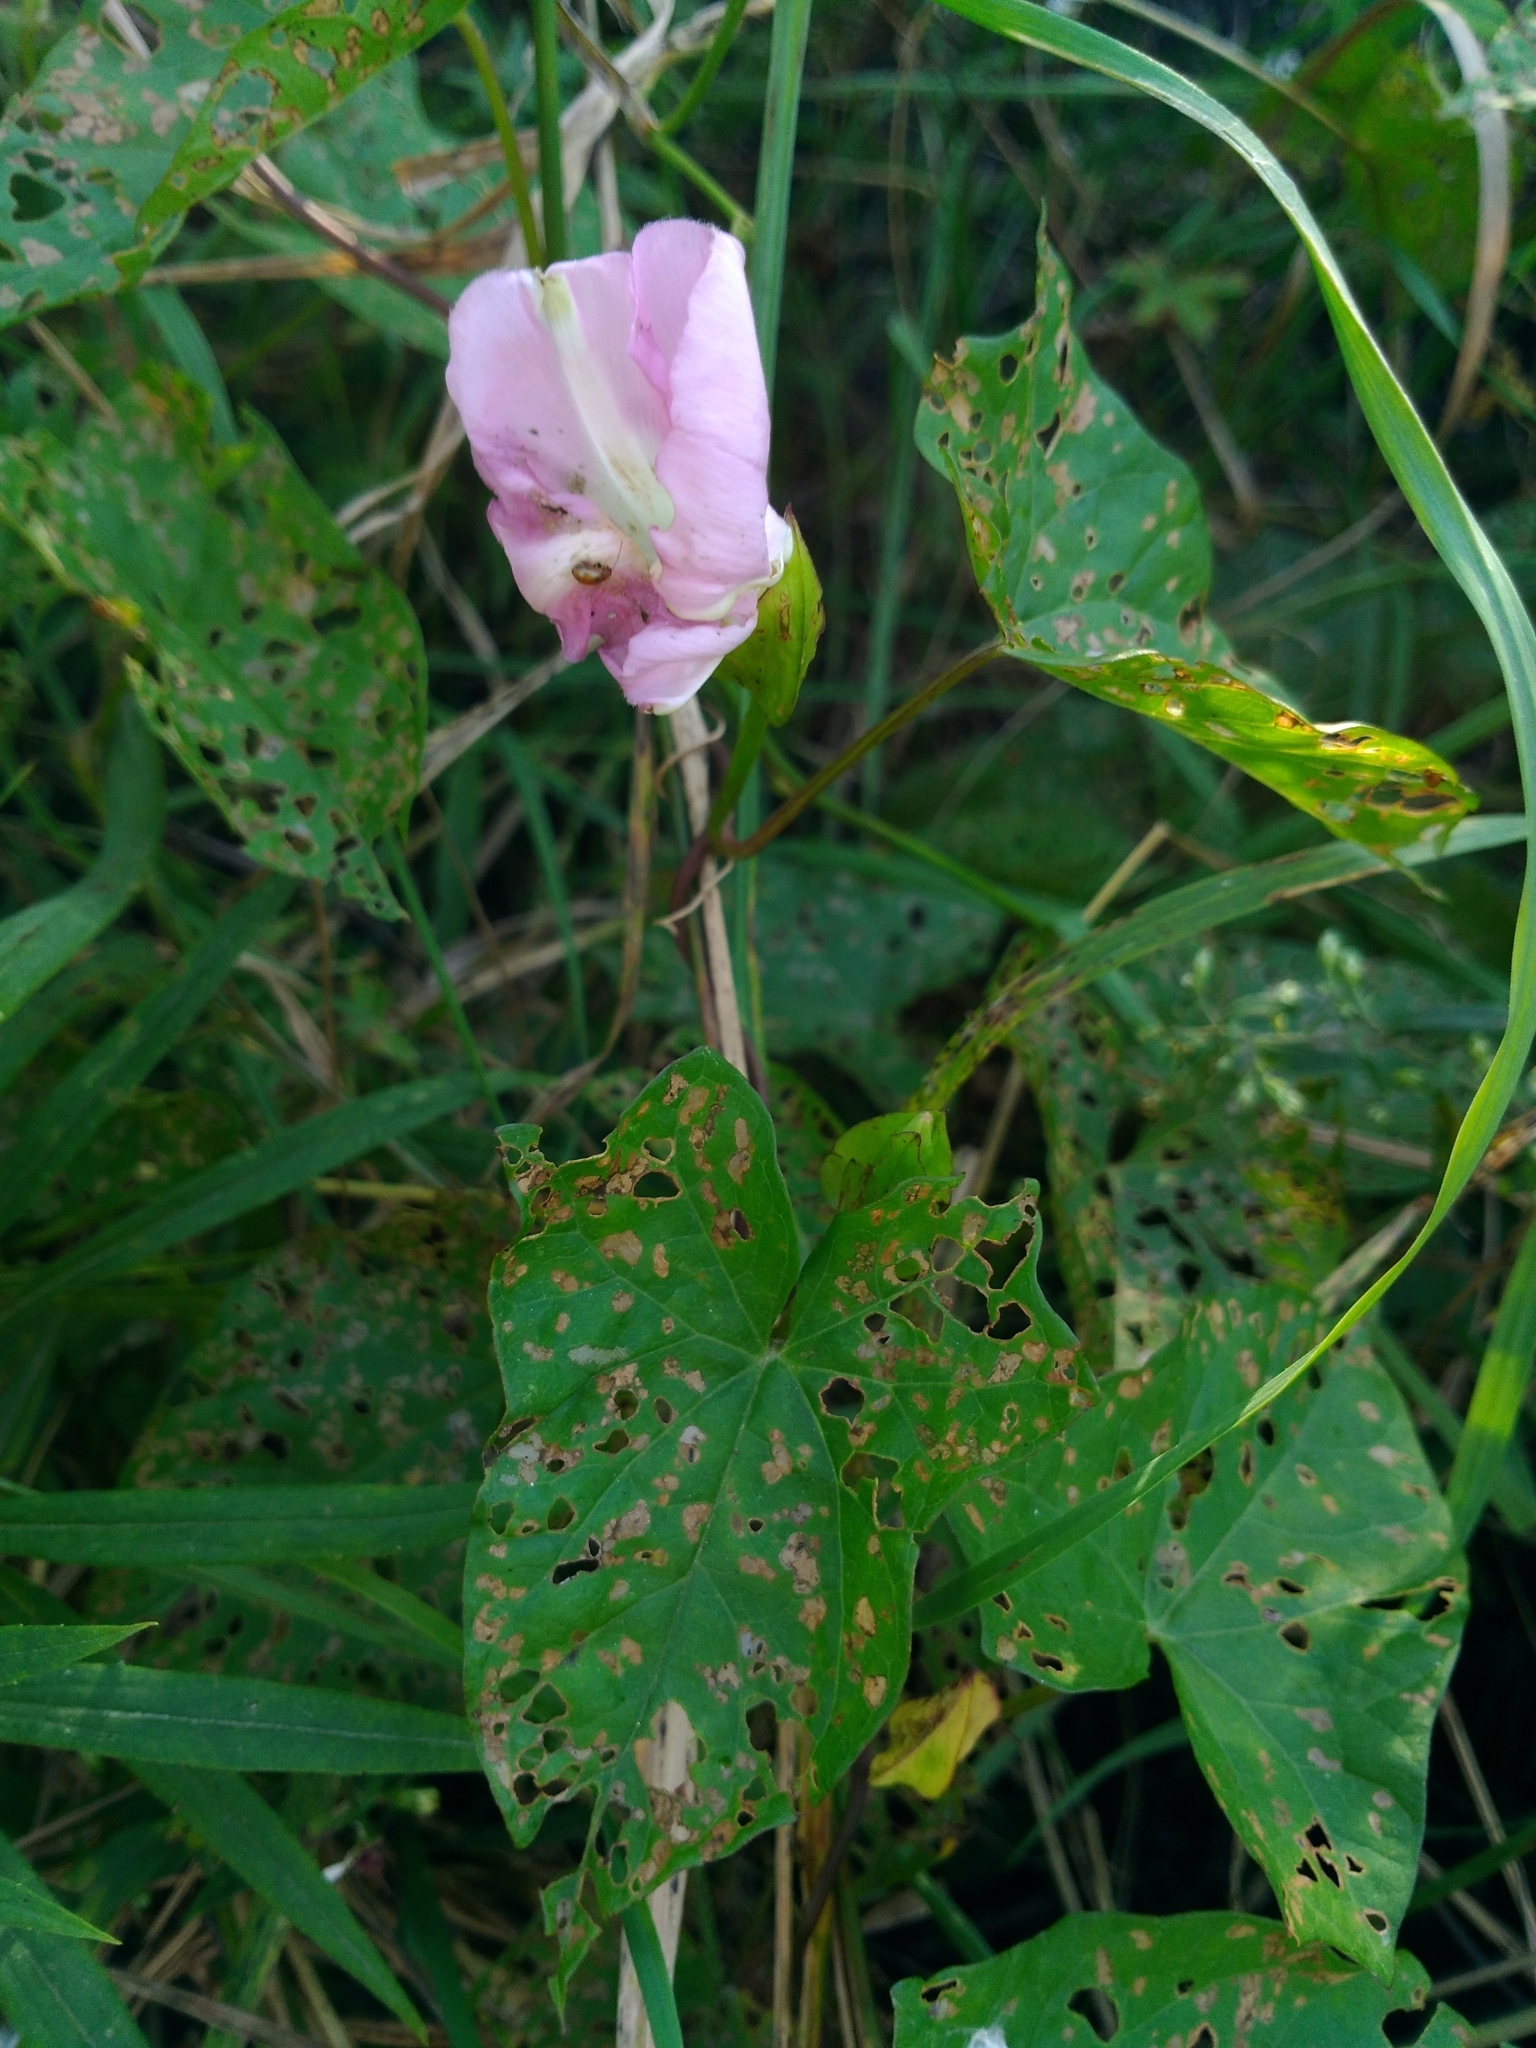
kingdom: Plantae
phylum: Tracheophyta
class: Magnoliopsida
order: Solanales
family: Convolvulaceae
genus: Calystegia
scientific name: Calystegia sepium
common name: Hedge bindweed
